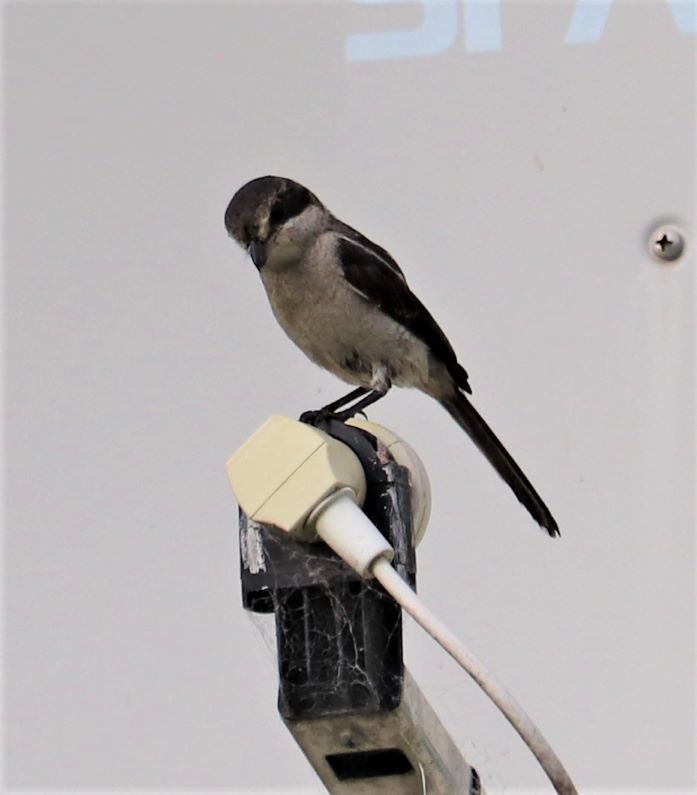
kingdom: Animalia
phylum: Chordata
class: Aves
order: Passeriformes
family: Laniidae
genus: Lanius
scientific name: Lanius collaris
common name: Southern fiscal
